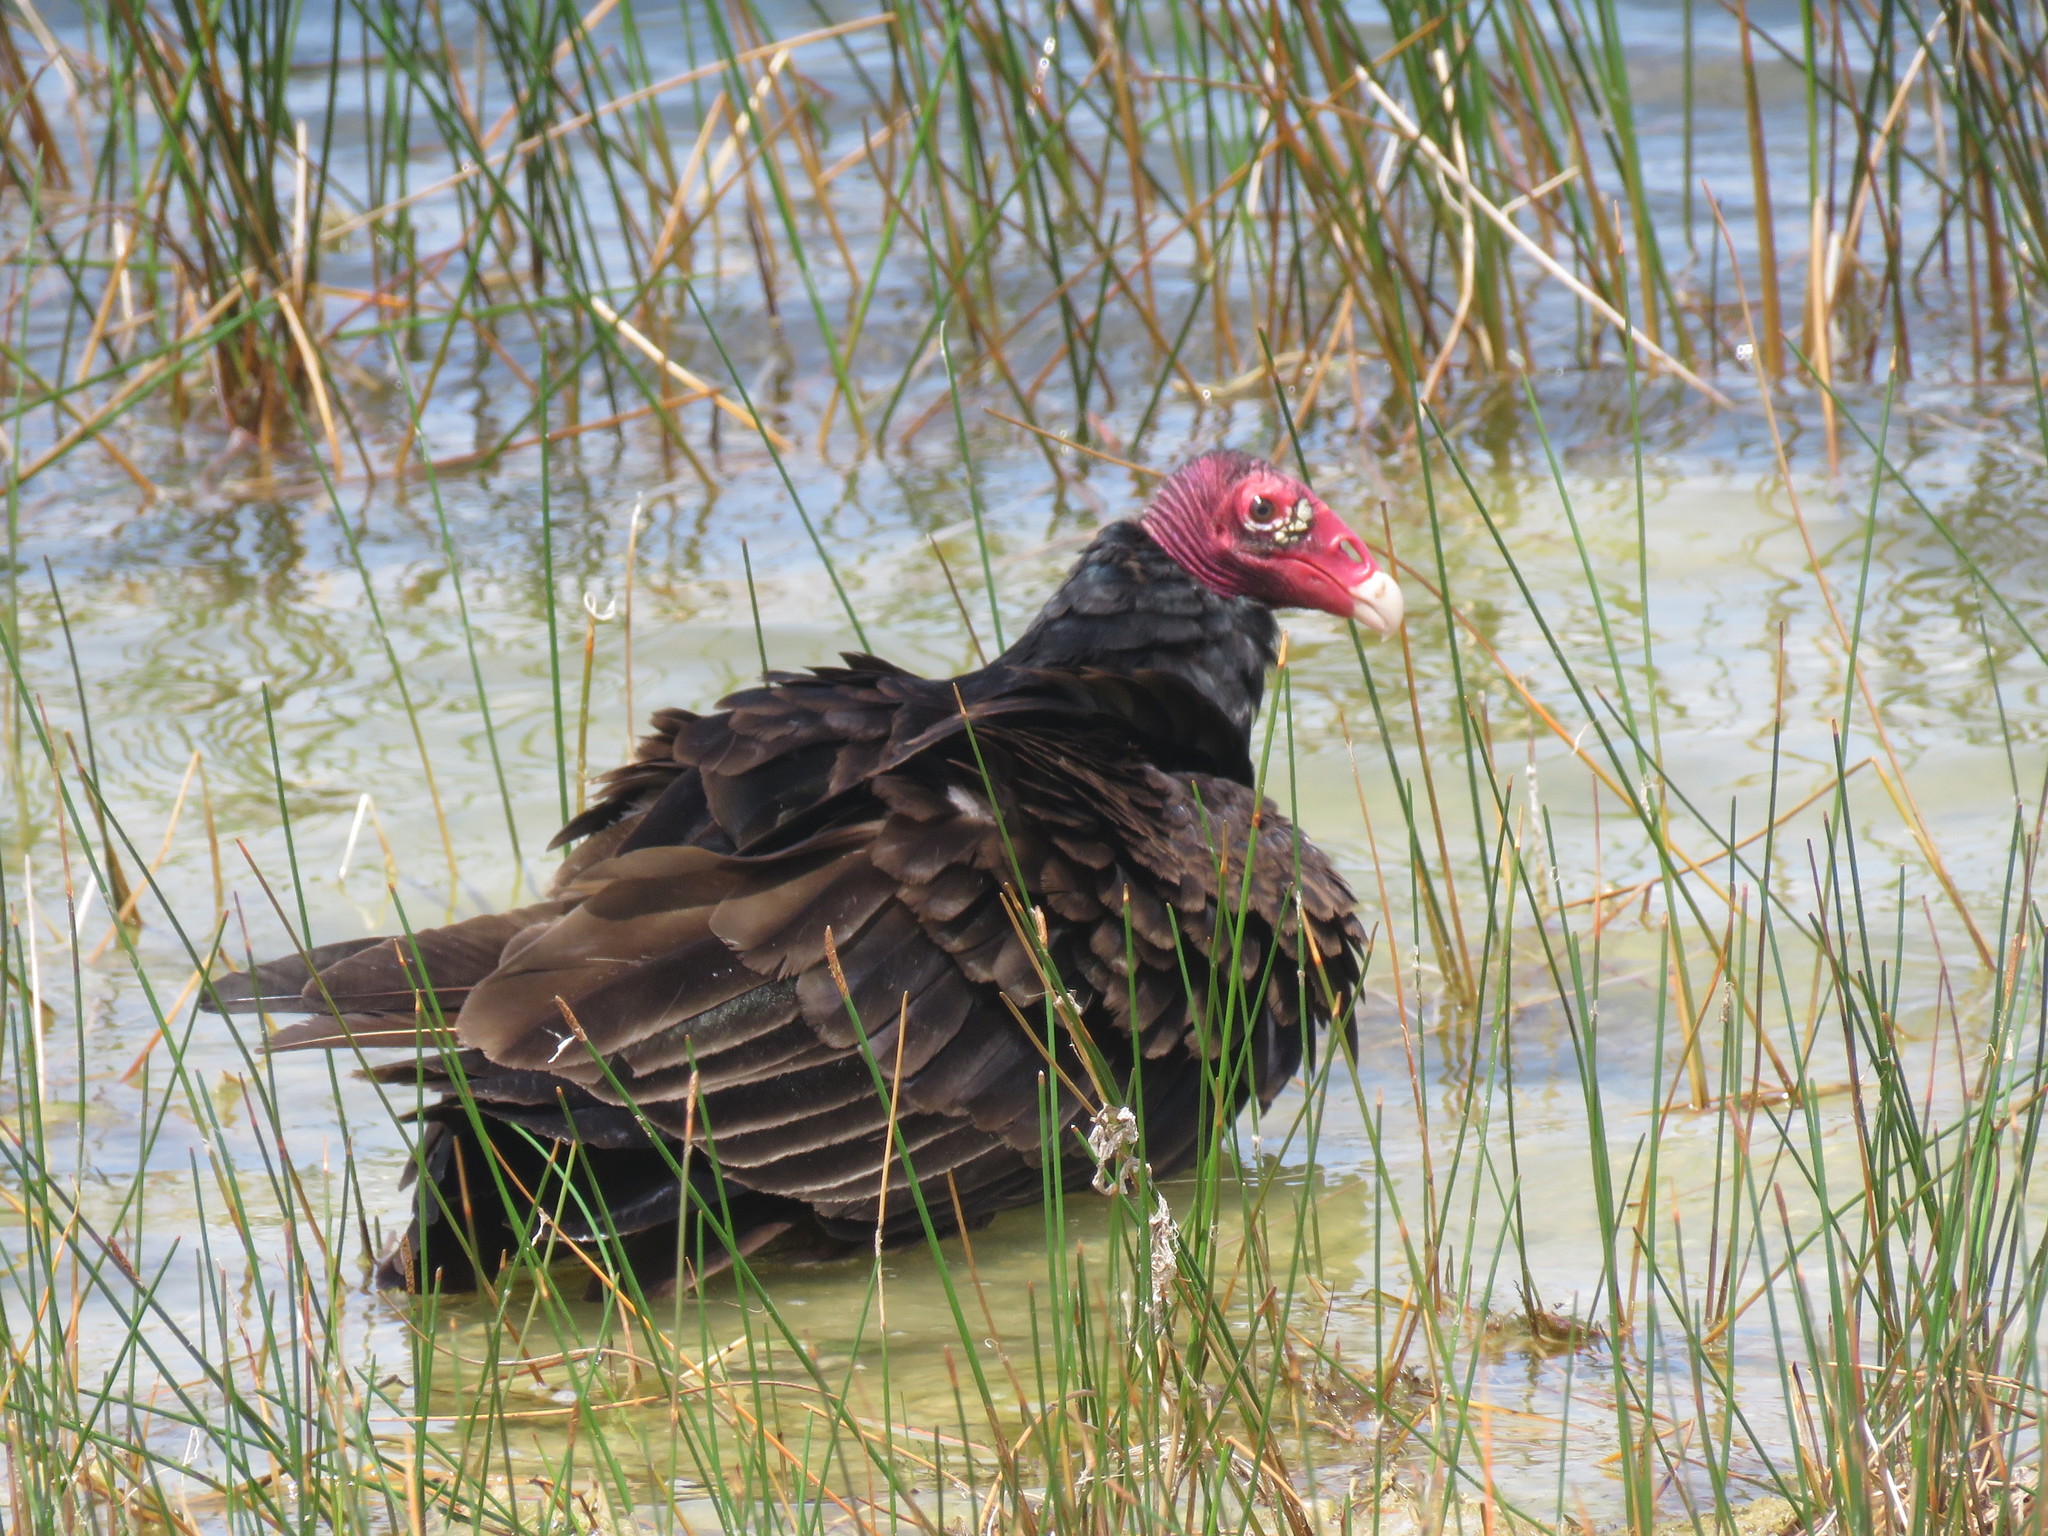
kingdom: Animalia
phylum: Chordata
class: Aves
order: Accipitriformes
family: Cathartidae
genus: Cathartes
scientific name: Cathartes aura
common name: Turkey vulture
